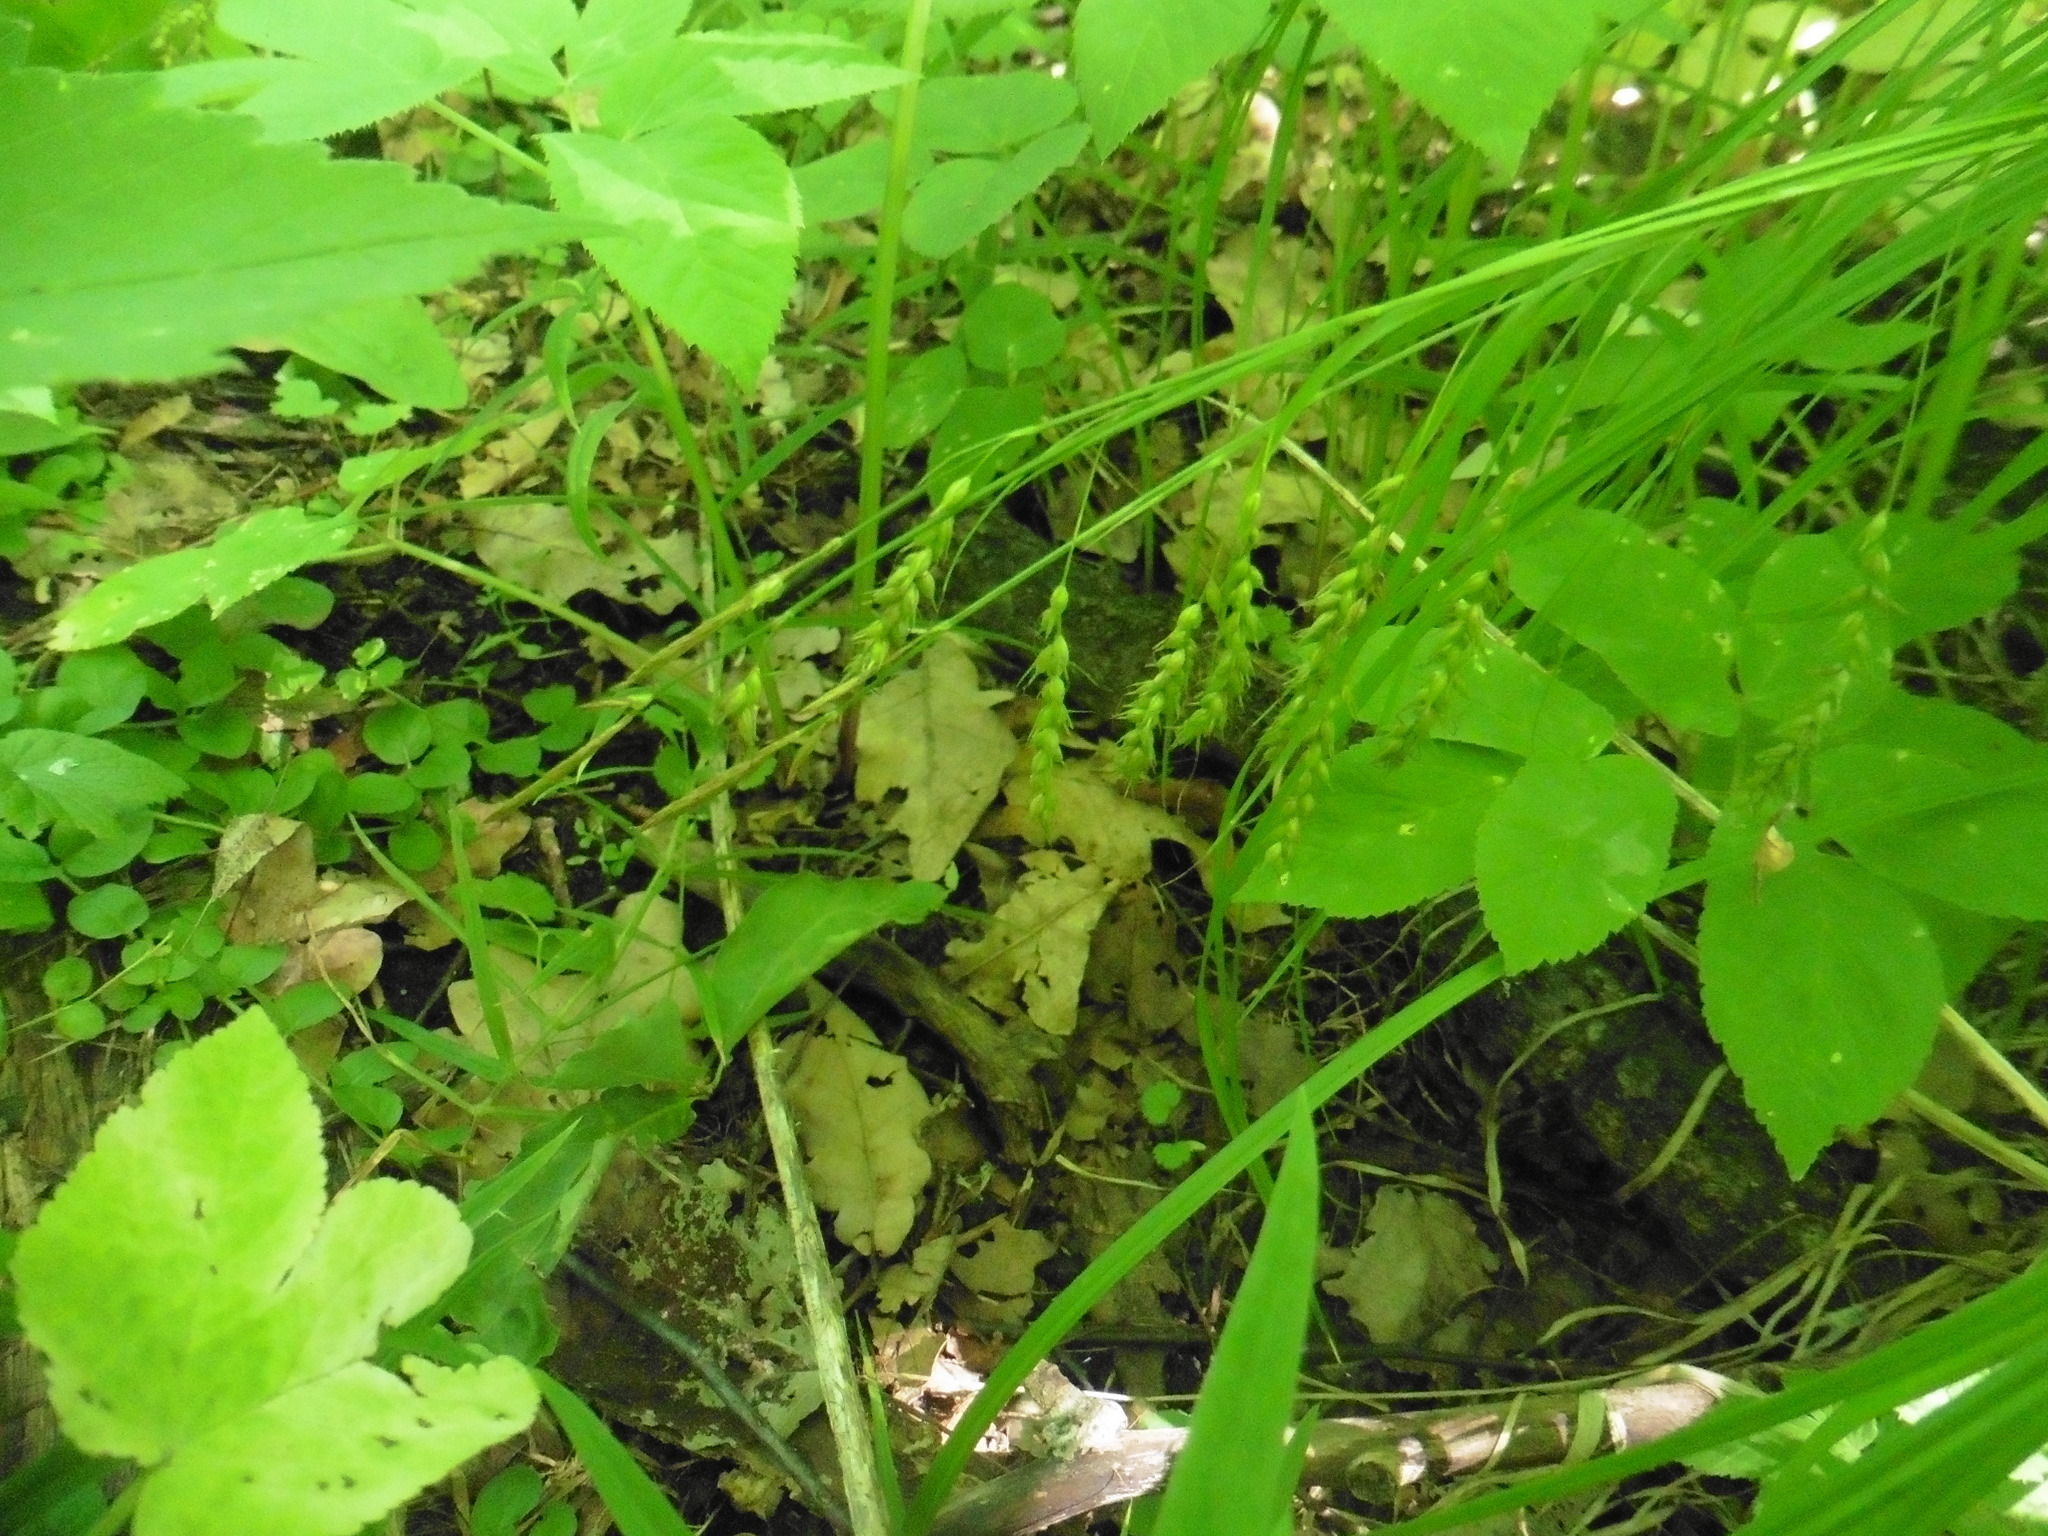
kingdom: Plantae
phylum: Tracheophyta
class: Liliopsida
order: Poales
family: Cyperaceae
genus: Carex
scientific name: Carex arnellii
